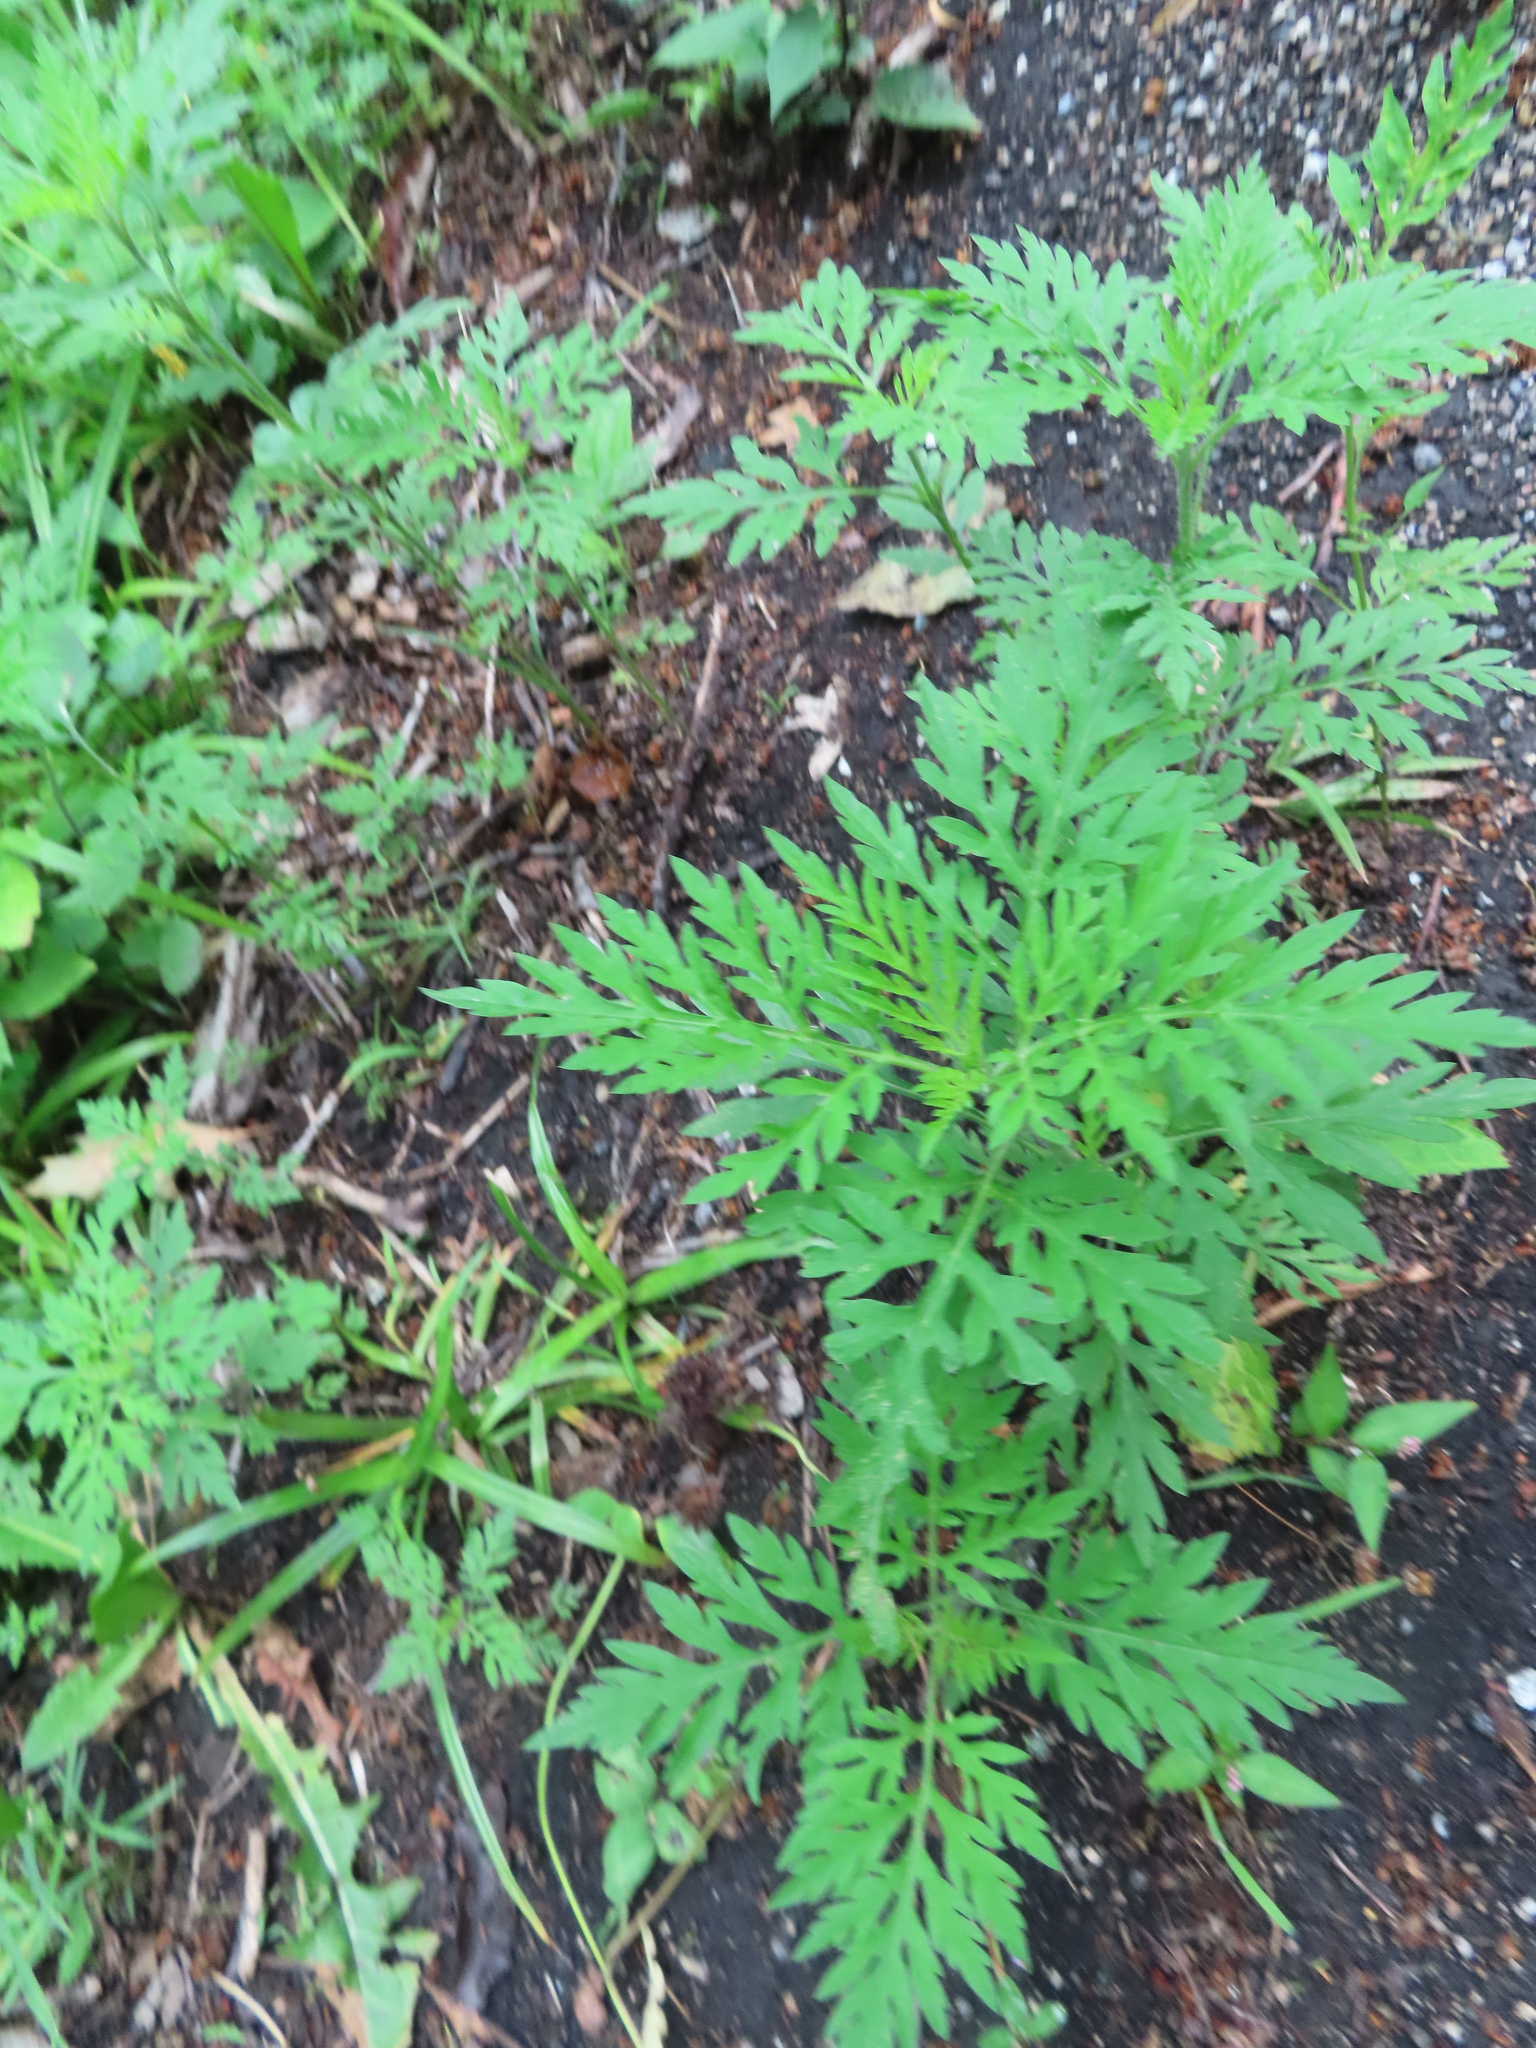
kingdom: Plantae
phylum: Tracheophyta
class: Magnoliopsida
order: Asterales
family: Asteraceae
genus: Ambrosia
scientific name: Ambrosia artemisiifolia
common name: Annual ragweed
